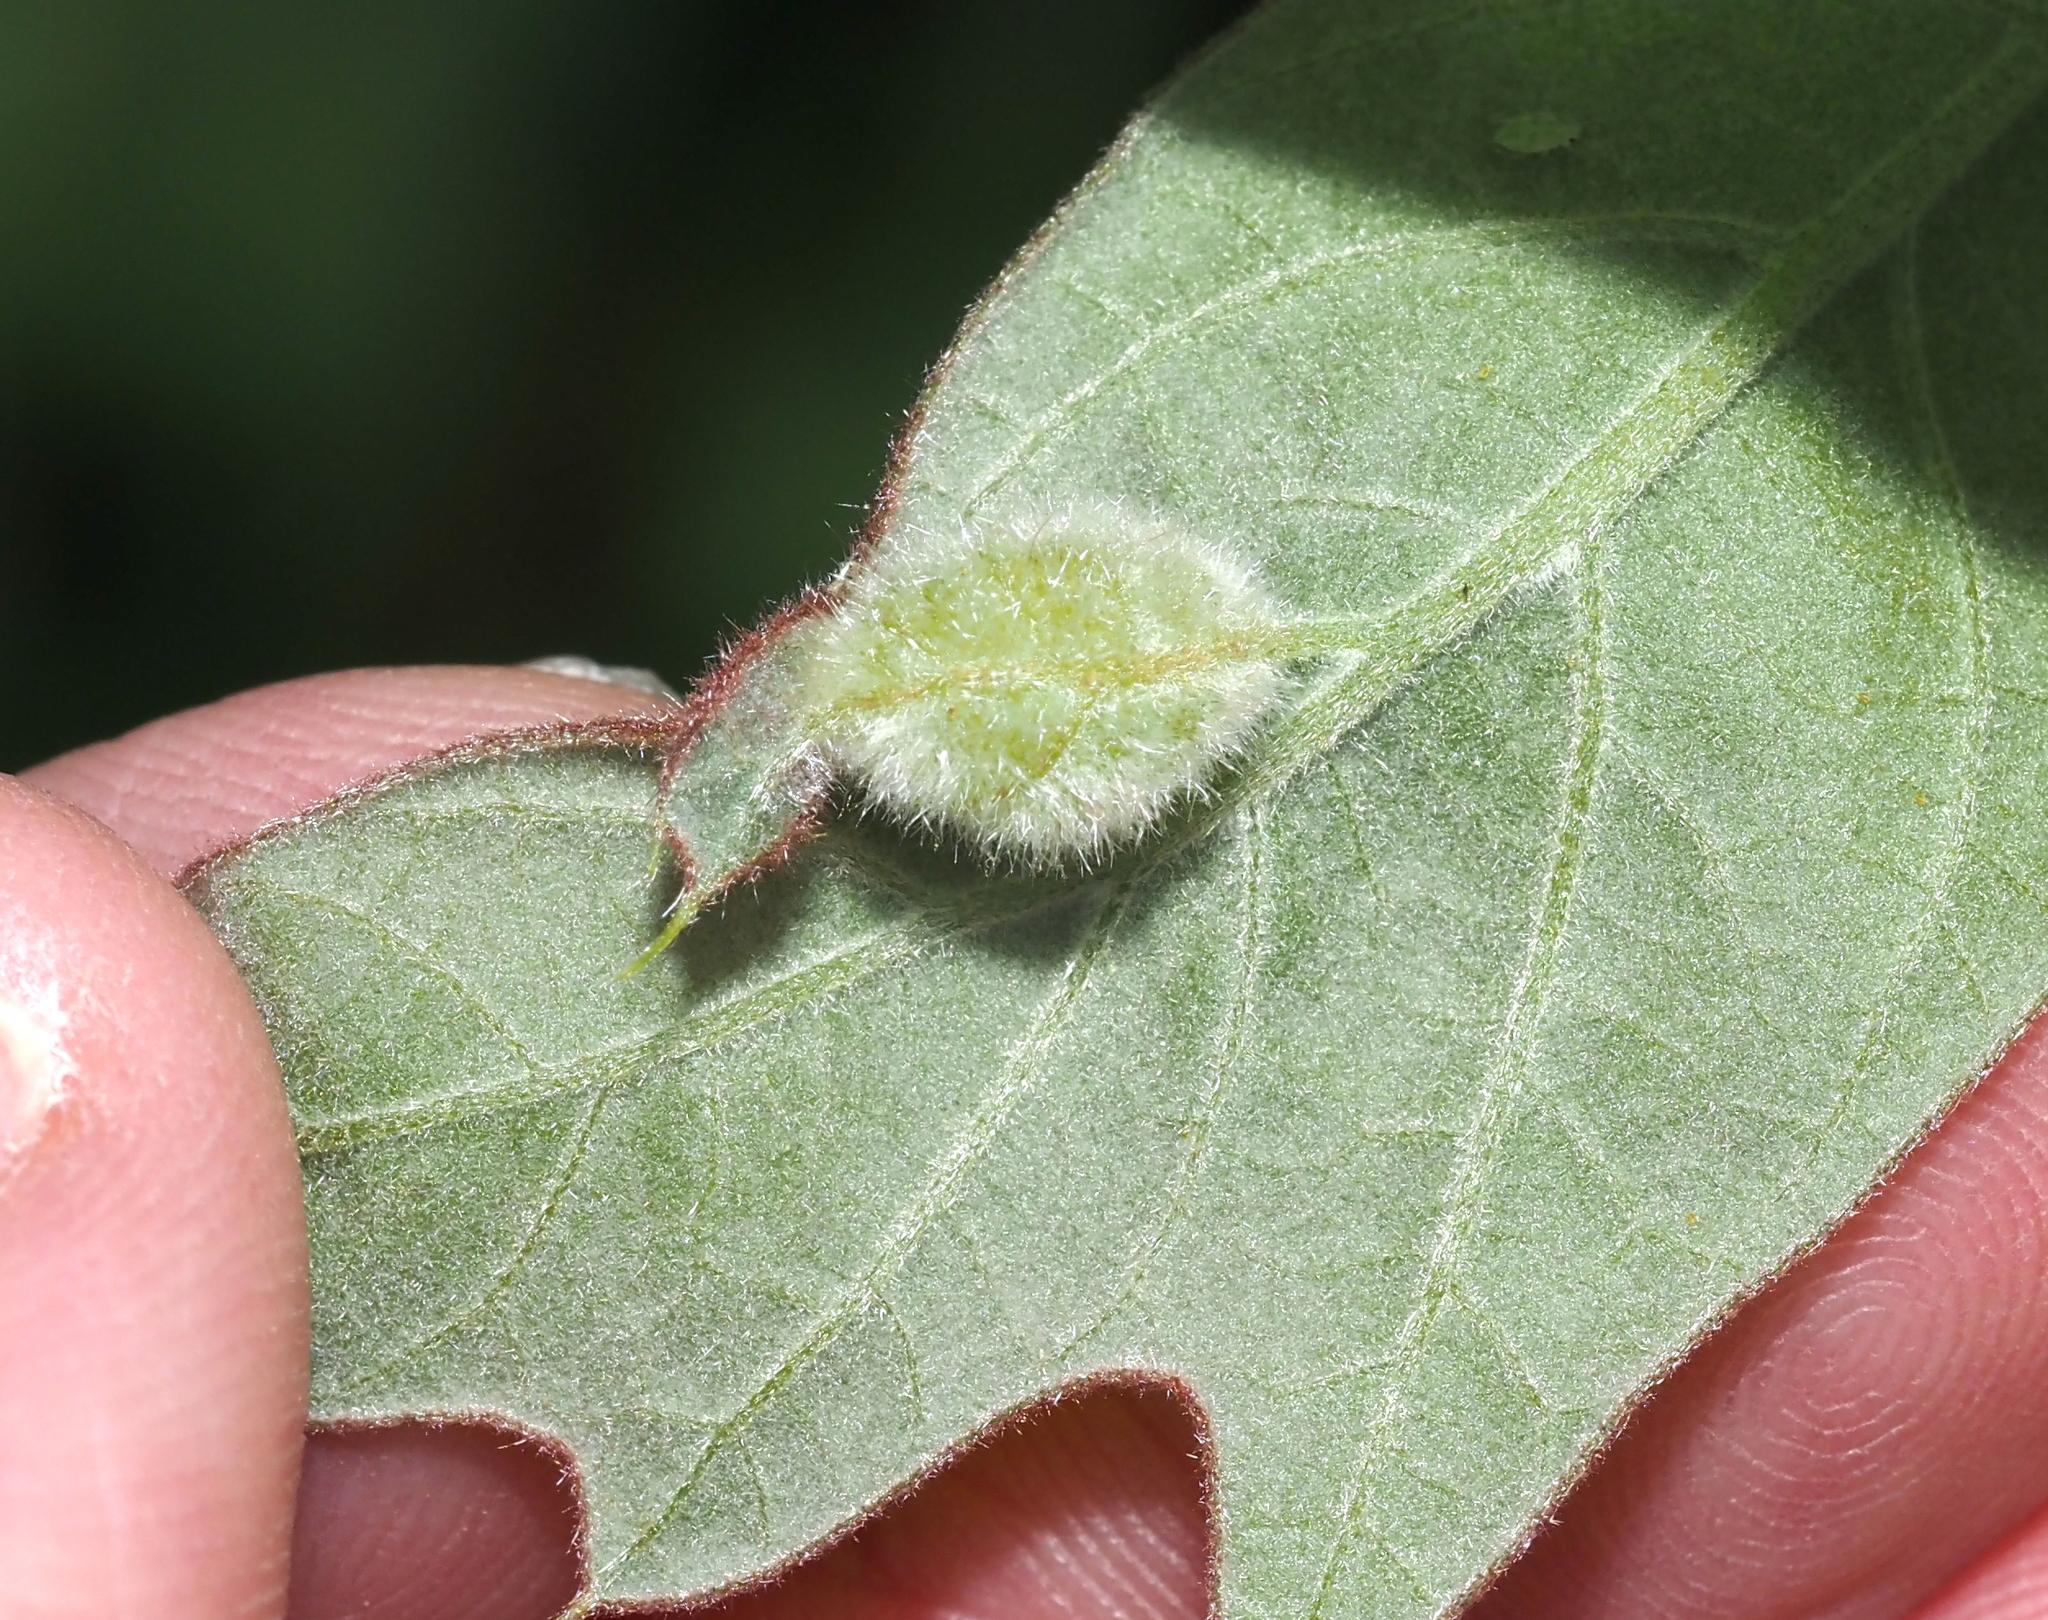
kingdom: Animalia
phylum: Arthropoda
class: Insecta
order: Diptera
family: Cecidomyiidae
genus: Macrodiplosis
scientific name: Macrodiplosis niveipila
